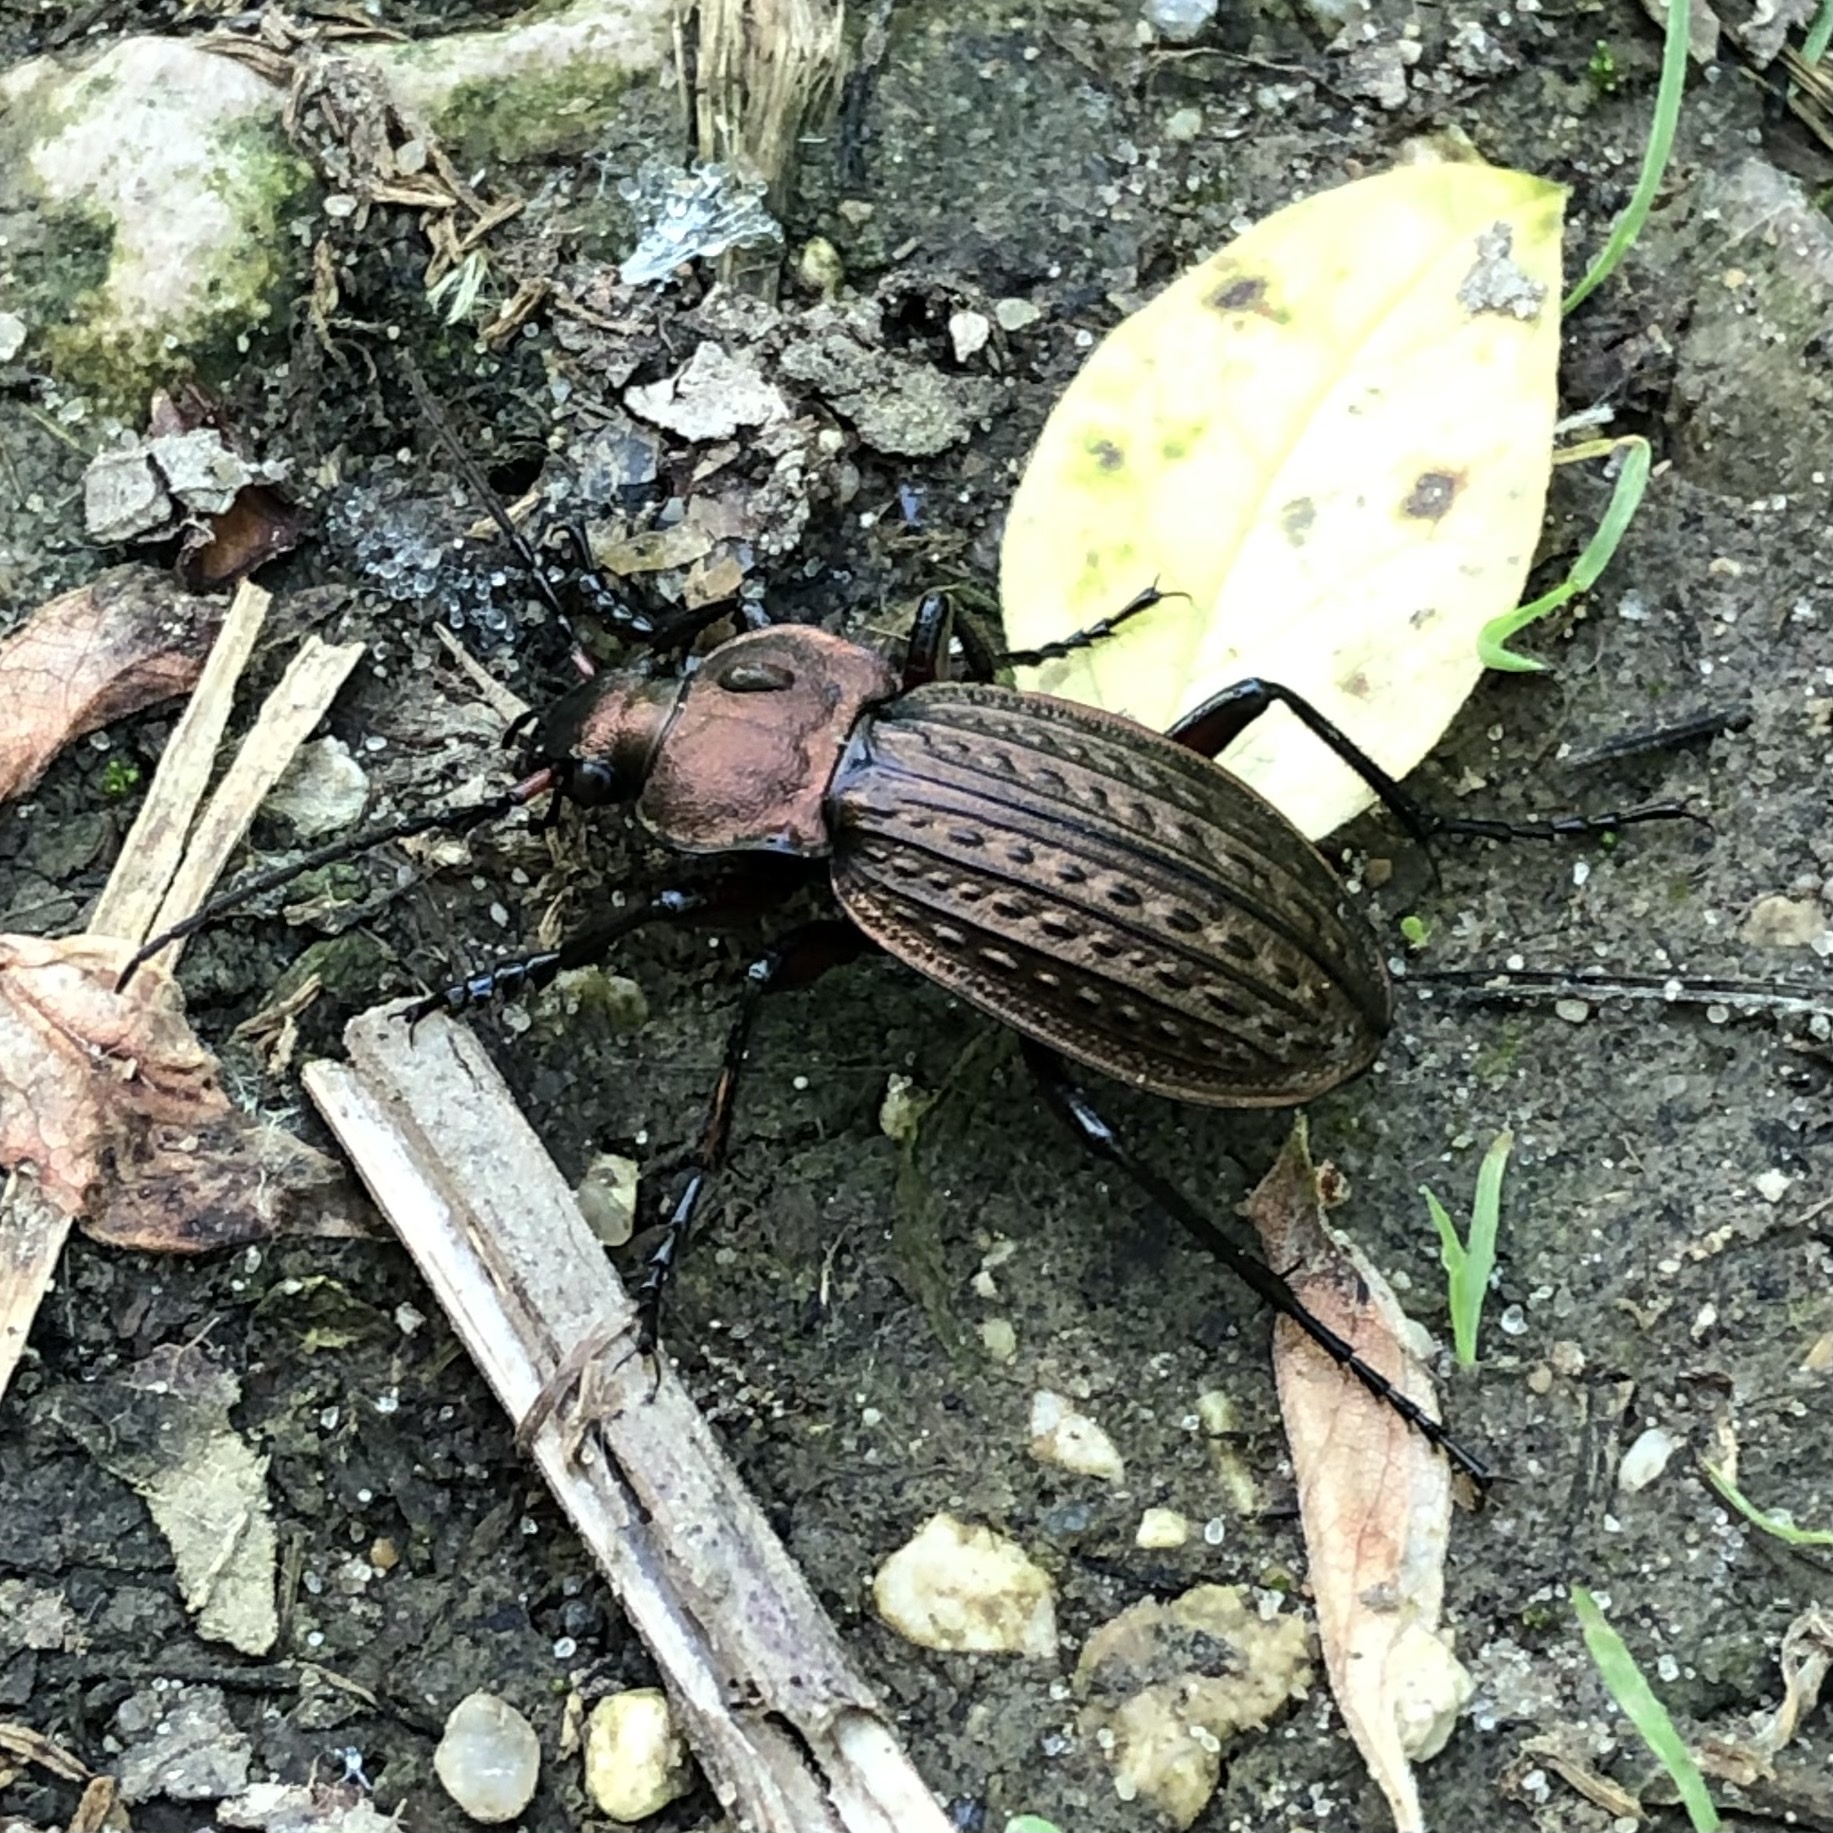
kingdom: Animalia
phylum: Arthropoda
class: Insecta
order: Coleoptera
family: Carabidae
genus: Carabus
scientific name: Carabus cancellatus
